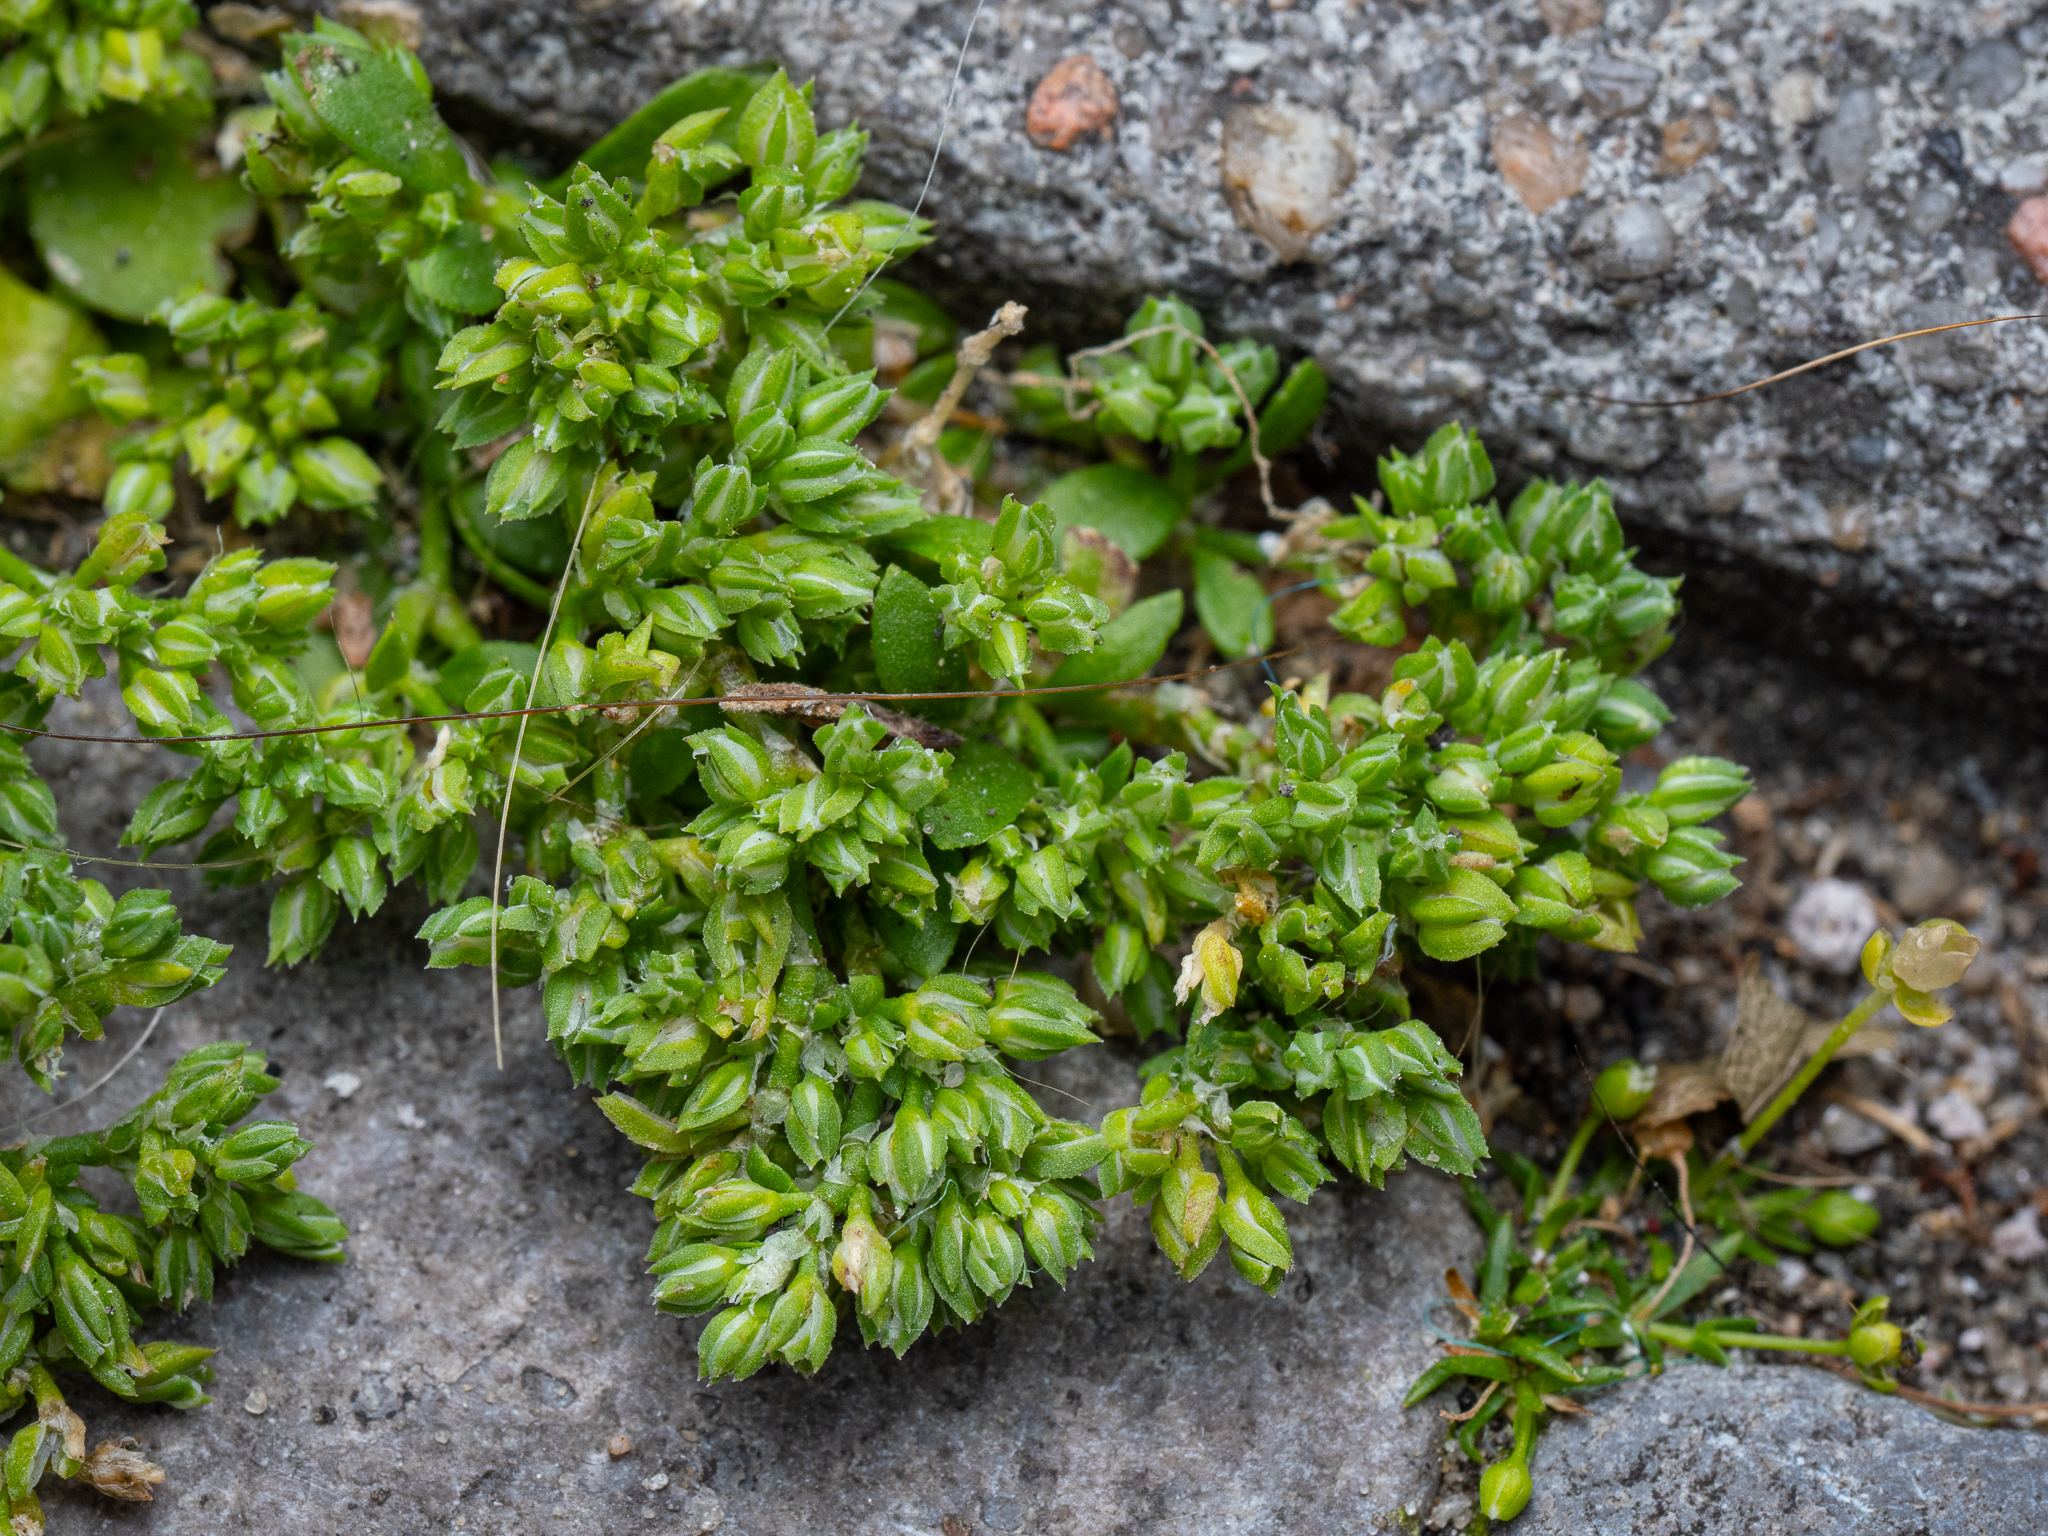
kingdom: Plantae
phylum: Tracheophyta
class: Magnoliopsida
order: Caryophyllales
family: Caryophyllaceae
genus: Polycarpon
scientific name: Polycarpon tetraphyllum
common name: Four-leaved all-seed
